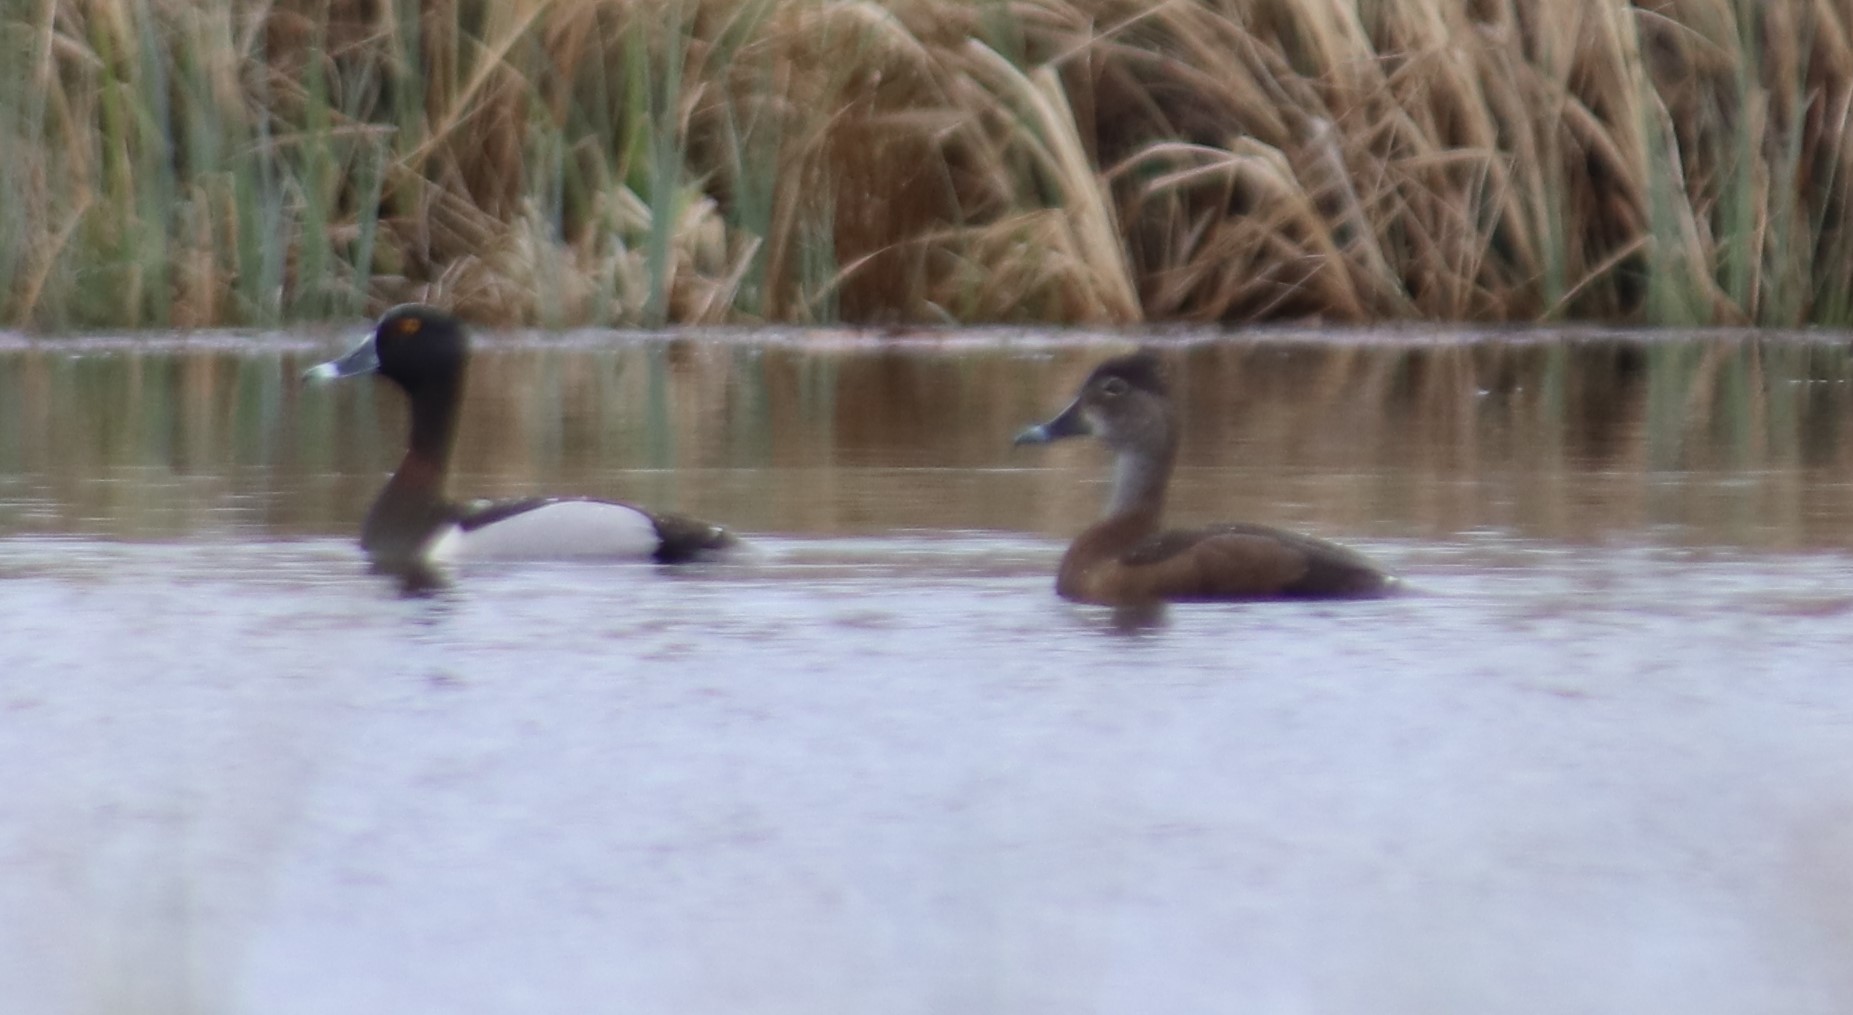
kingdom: Animalia
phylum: Chordata
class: Aves
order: Anseriformes
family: Anatidae
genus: Aythya
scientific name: Aythya collaris
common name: Ring-necked duck
